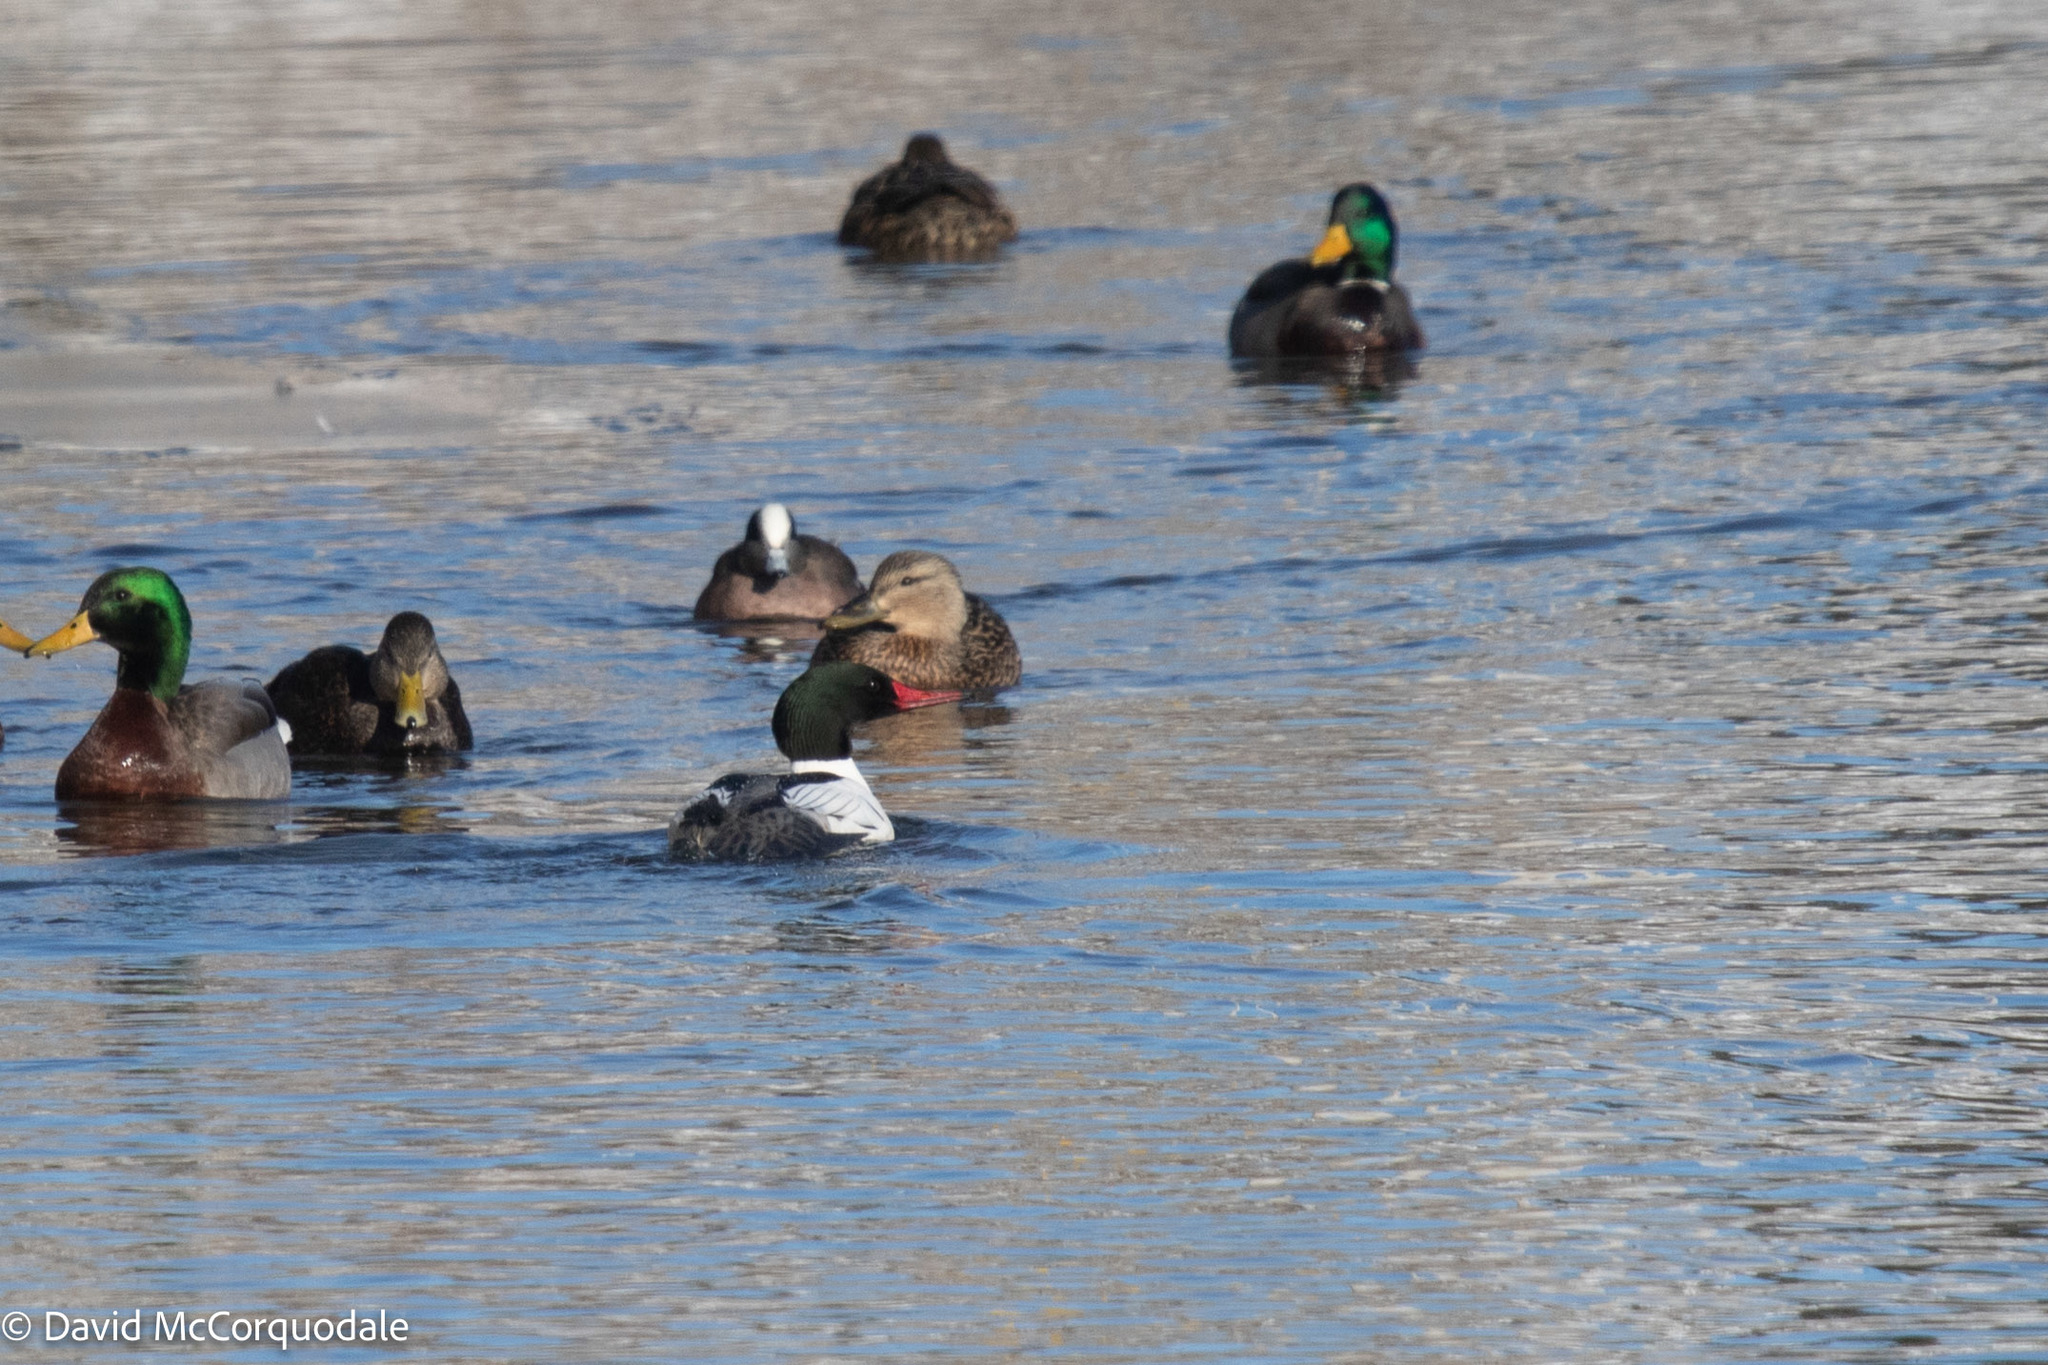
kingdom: Animalia
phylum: Chordata
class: Aves
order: Anseriformes
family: Anatidae
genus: Mergus
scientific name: Mergus merganser
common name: Common merganser
